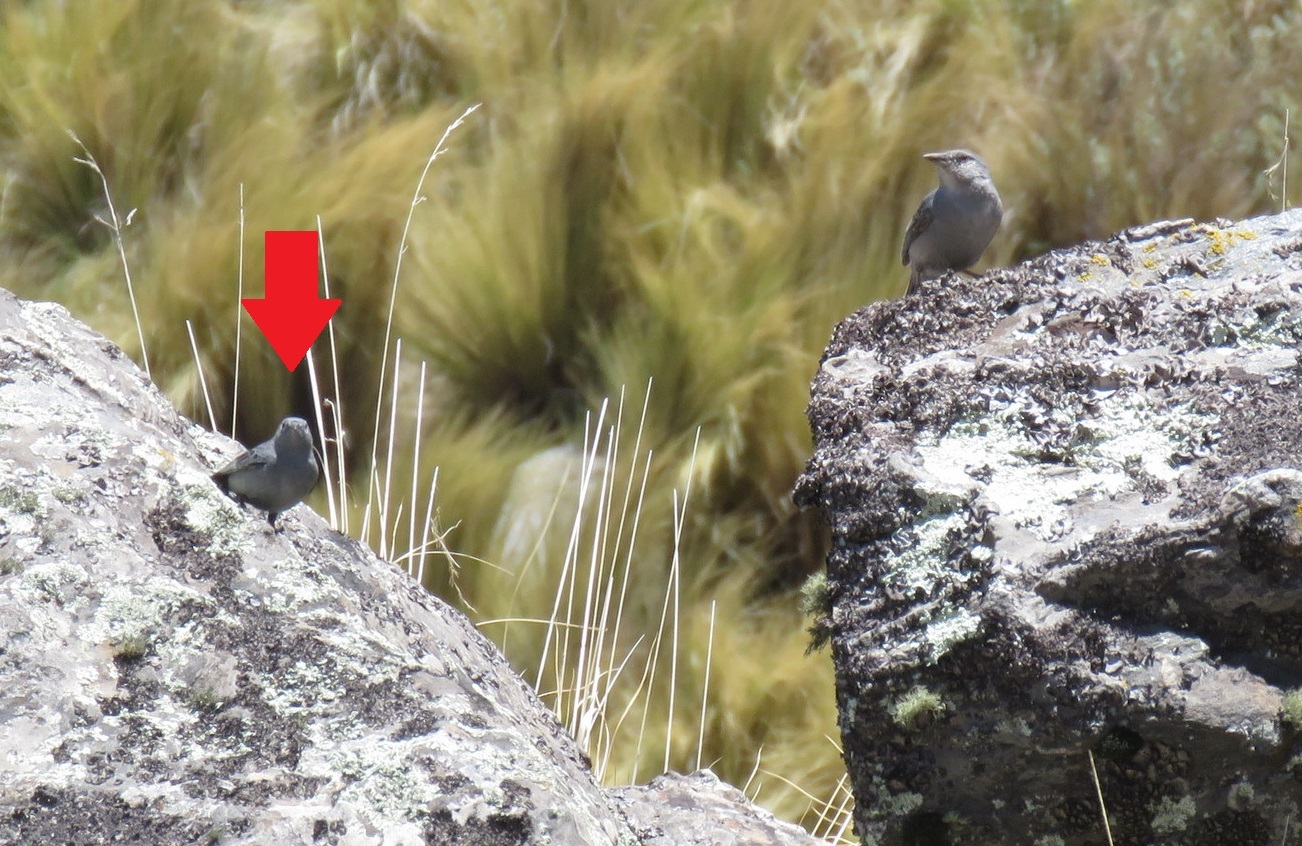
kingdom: Animalia
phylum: Chordata
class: Aves
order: Passeriformes
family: Thraupidae
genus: Geospizopsis
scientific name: Geospizopsis unicolor
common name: Plumbeous sierra-finch
